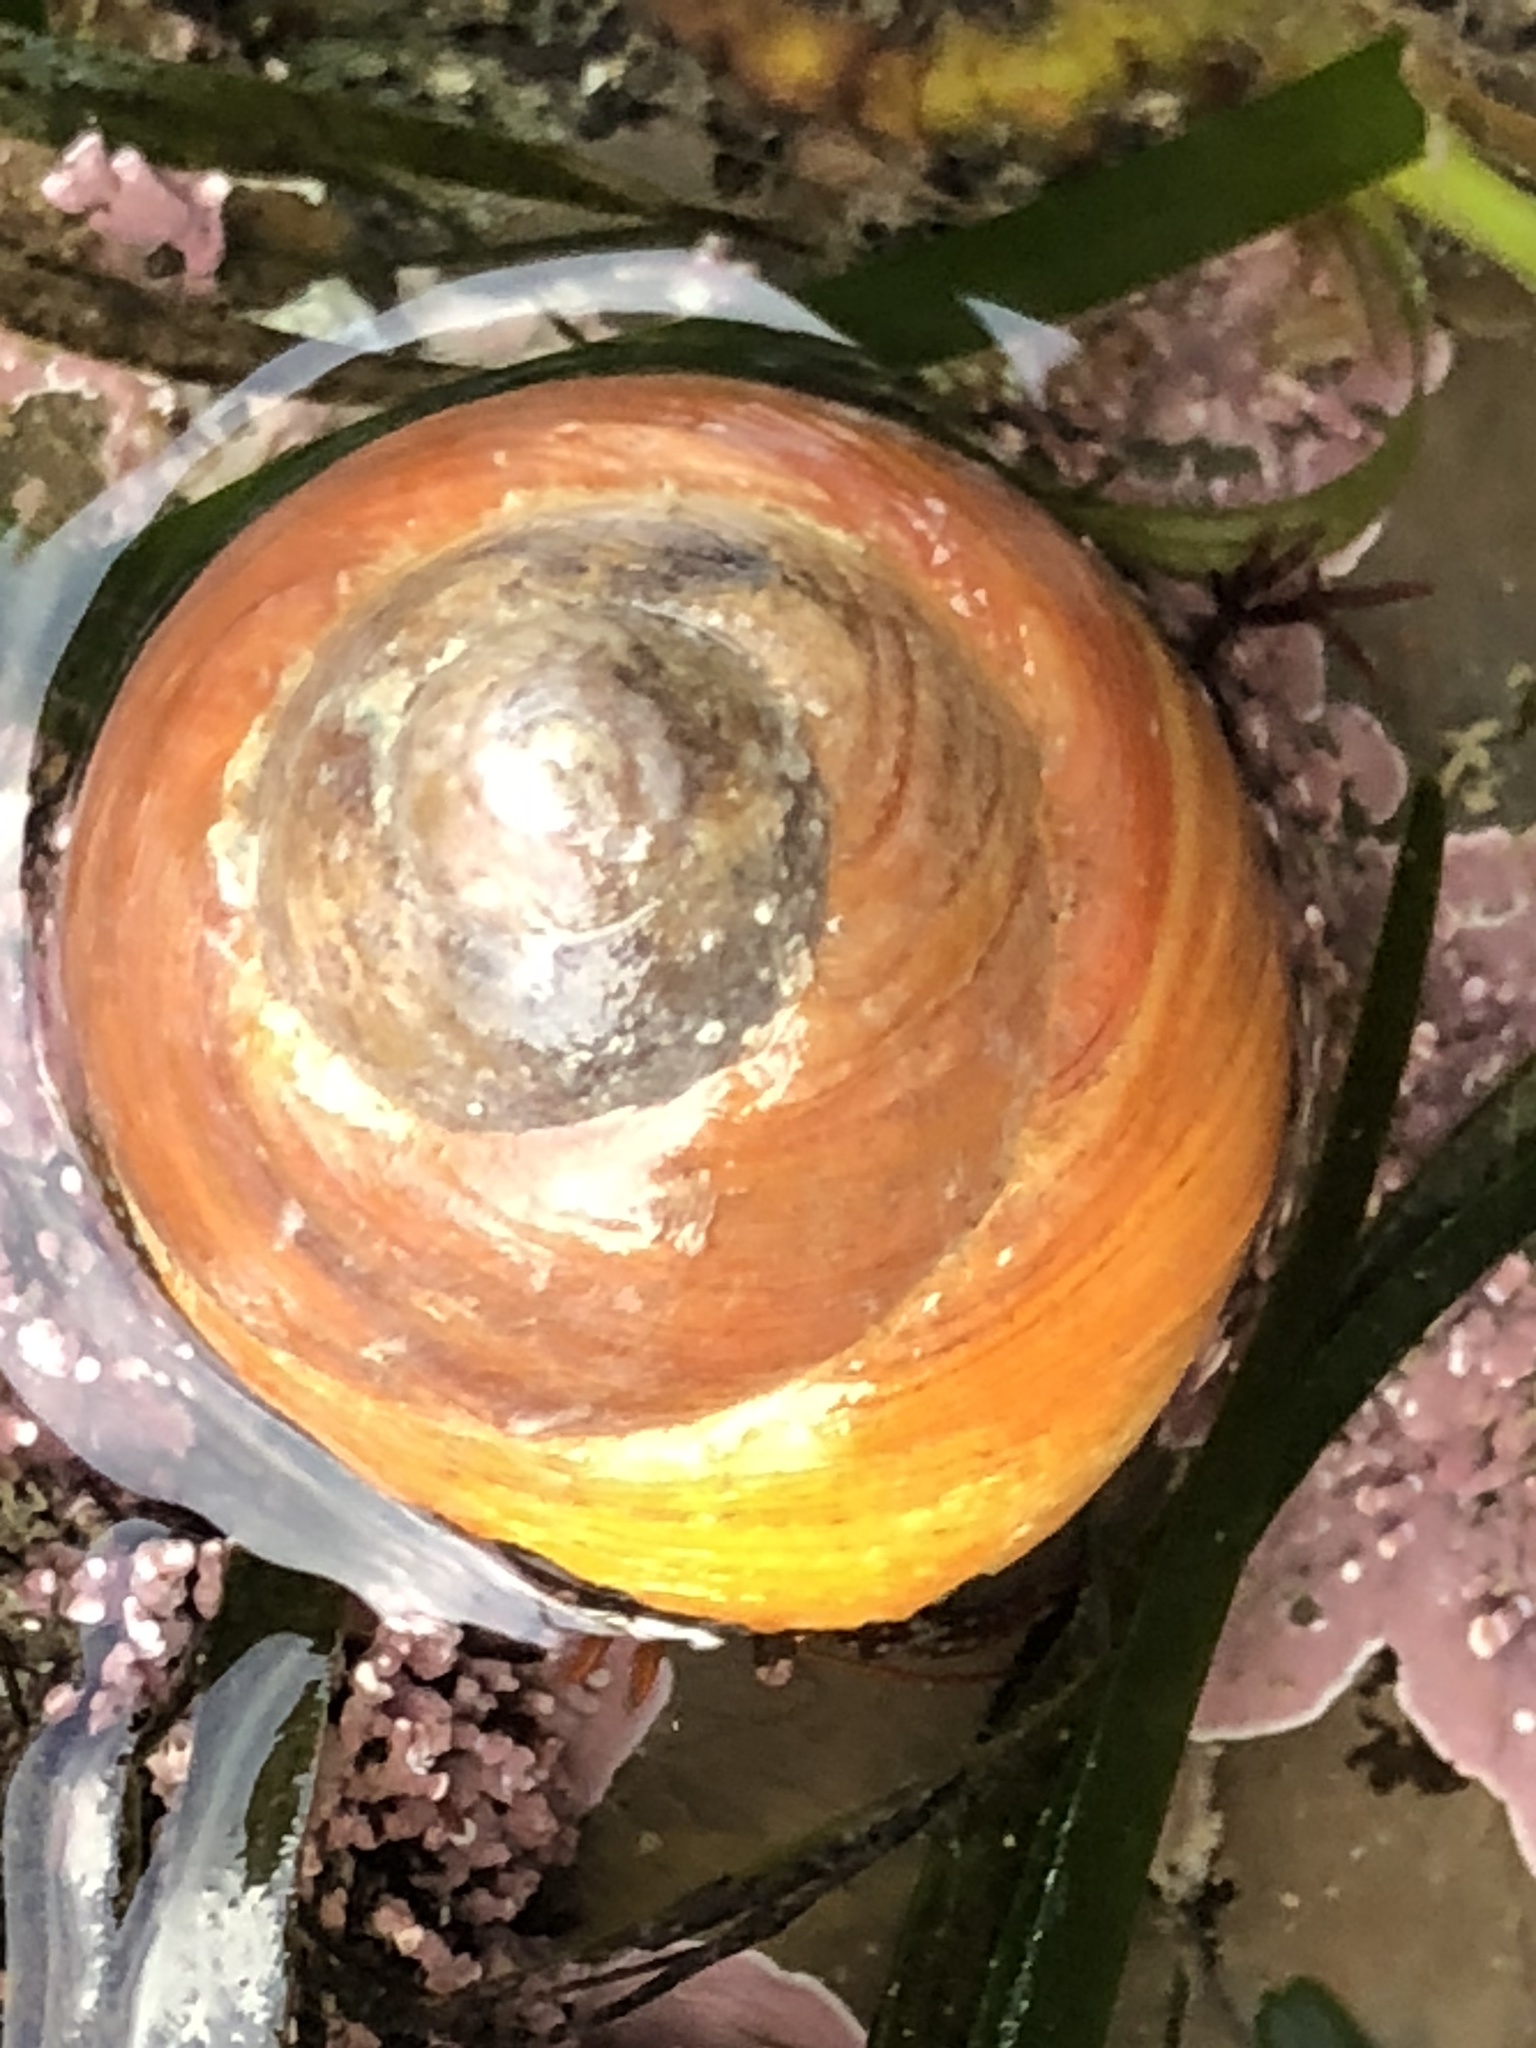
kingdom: Animalia
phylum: Mollusca
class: Gastropoda
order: Trochida
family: Tegulidae
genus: Tegula
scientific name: Tegula brunnea
